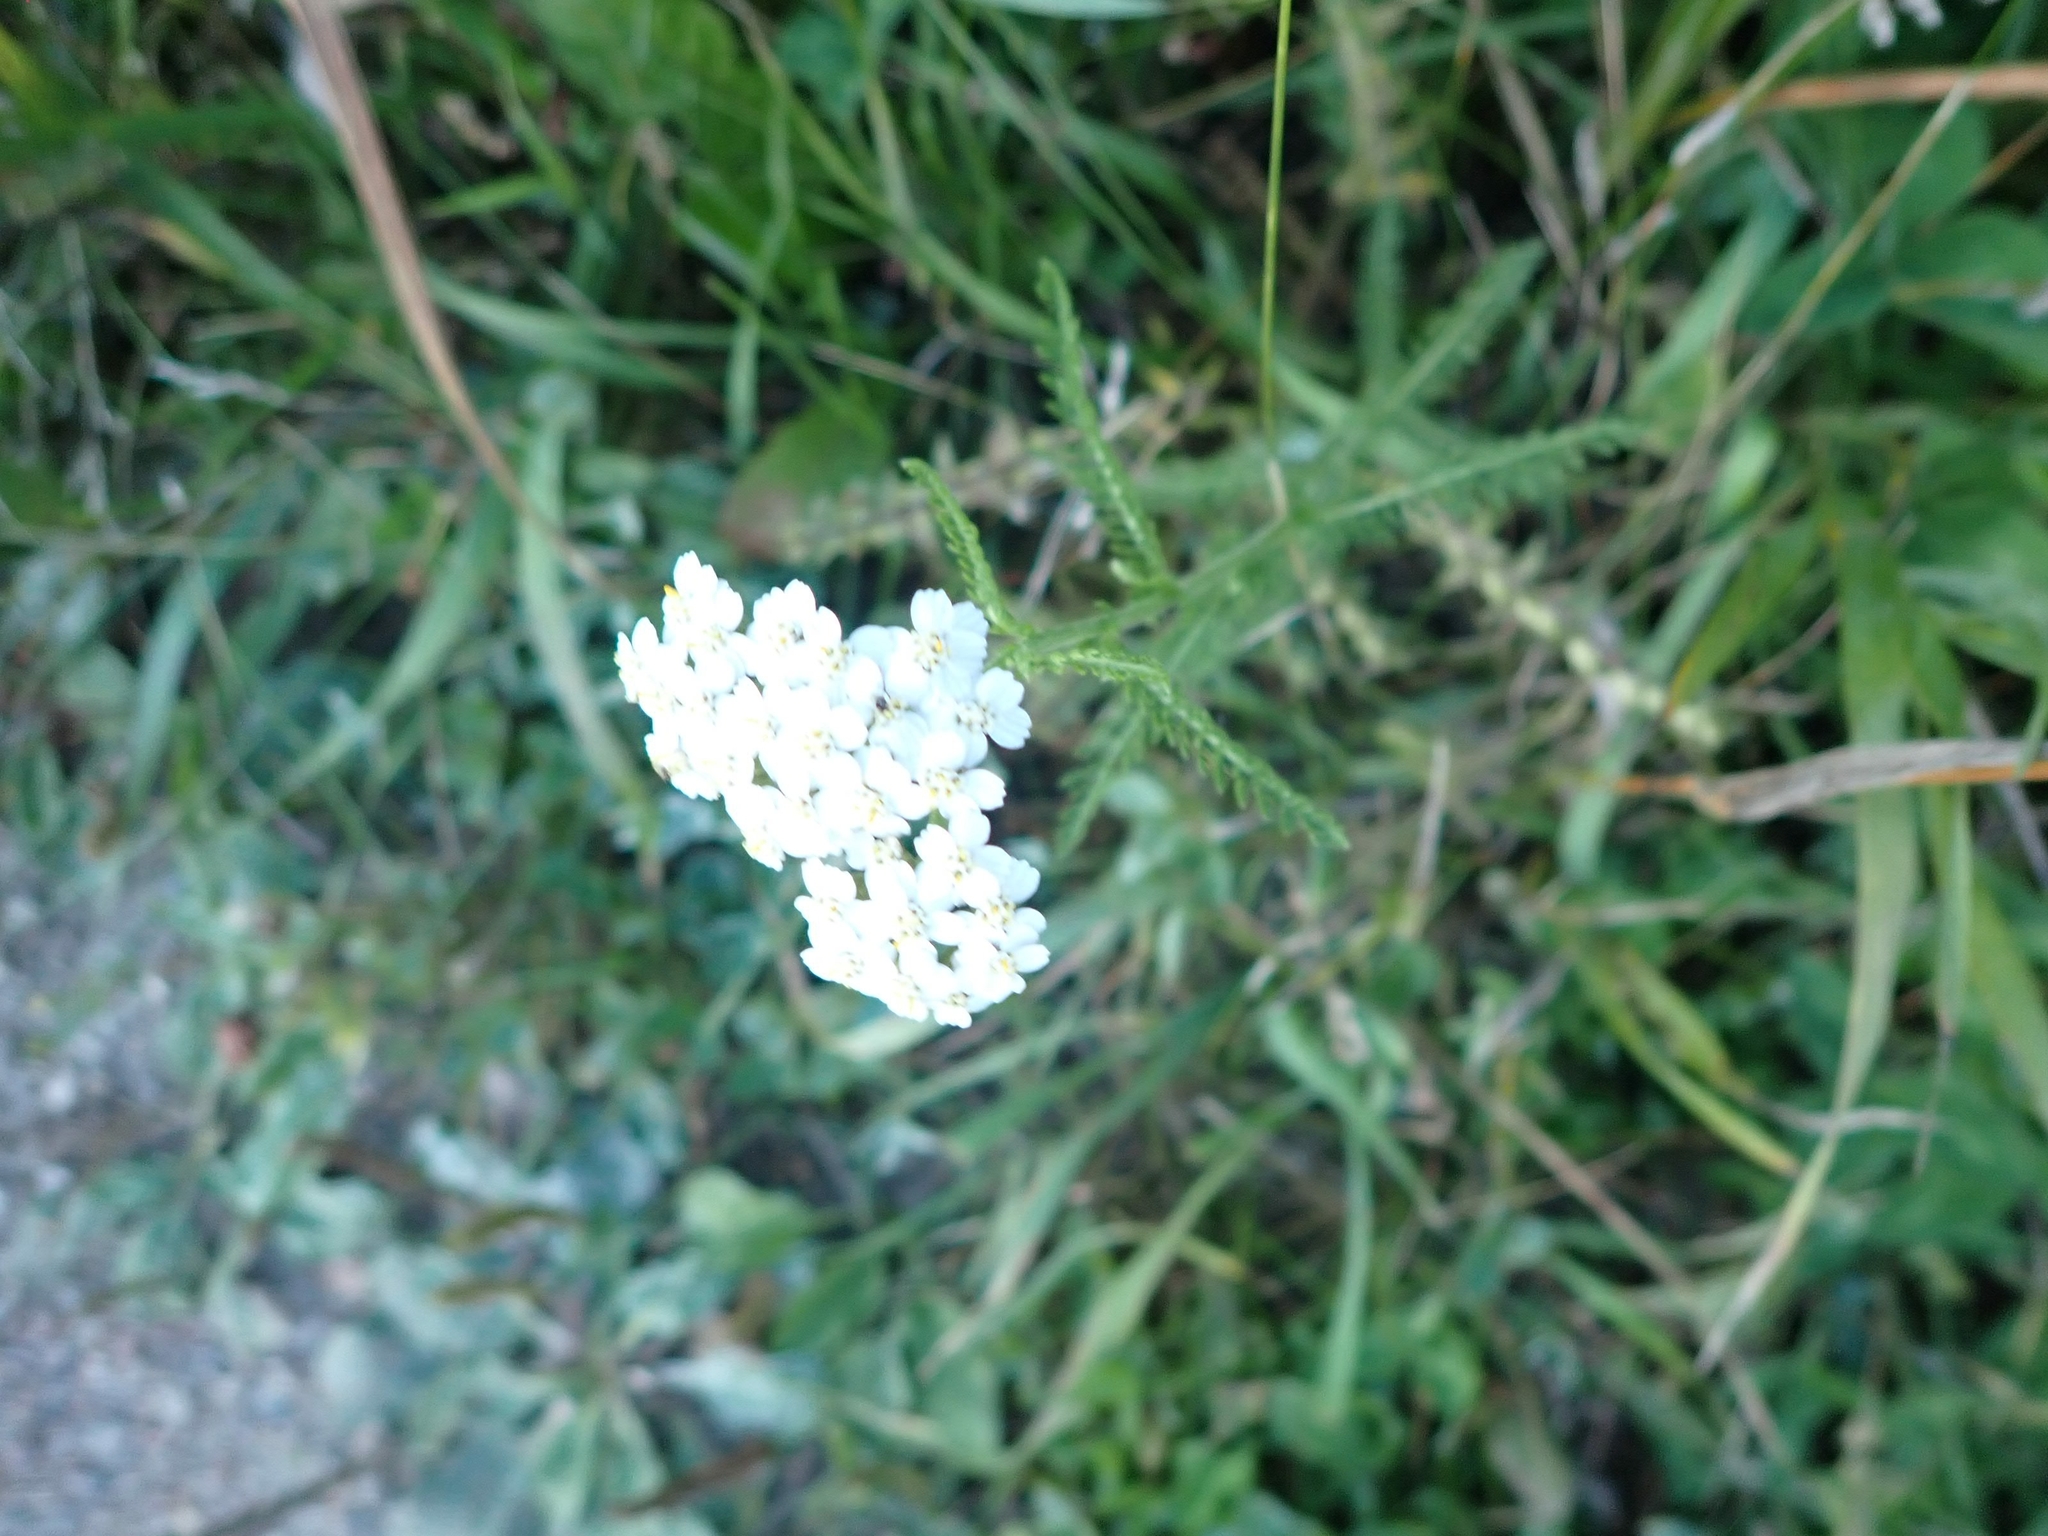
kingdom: Plantae
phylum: Tracheophyta
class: Magnoliopsida
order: Asterales
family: Asteraceae
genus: Achillea
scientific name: Achillea millefolium
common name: Yarrow
